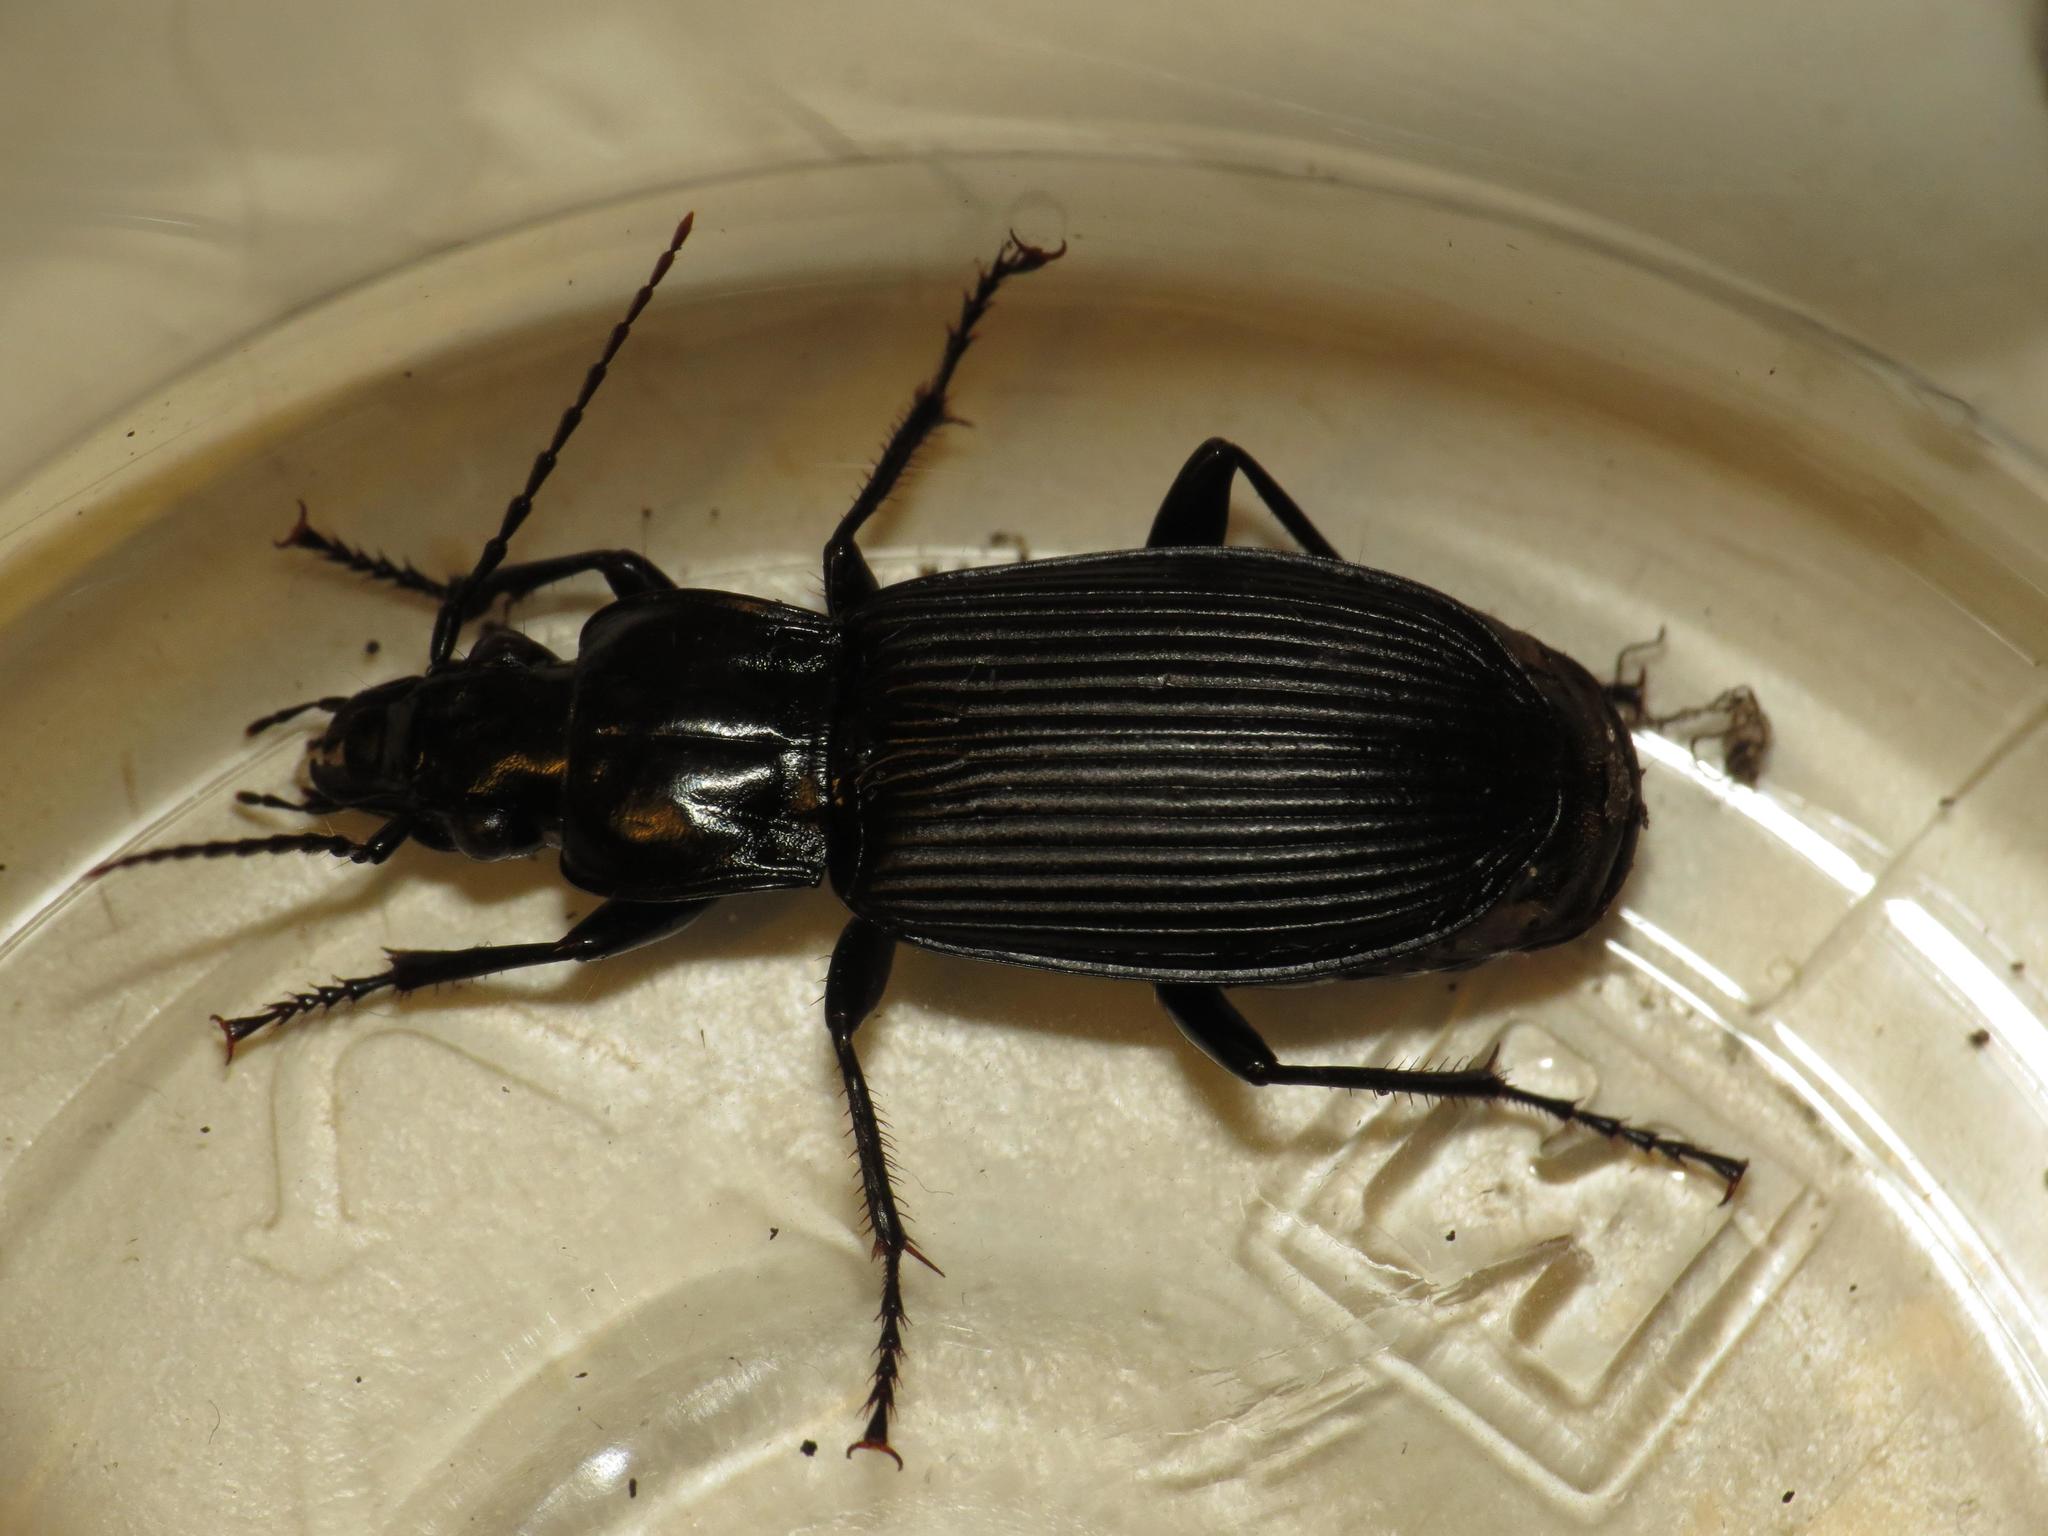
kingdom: Animalia
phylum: Arthropoda
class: Insecta
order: Coleoptera
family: Carabidae
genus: Pterostichus
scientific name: Pterostichus niger
